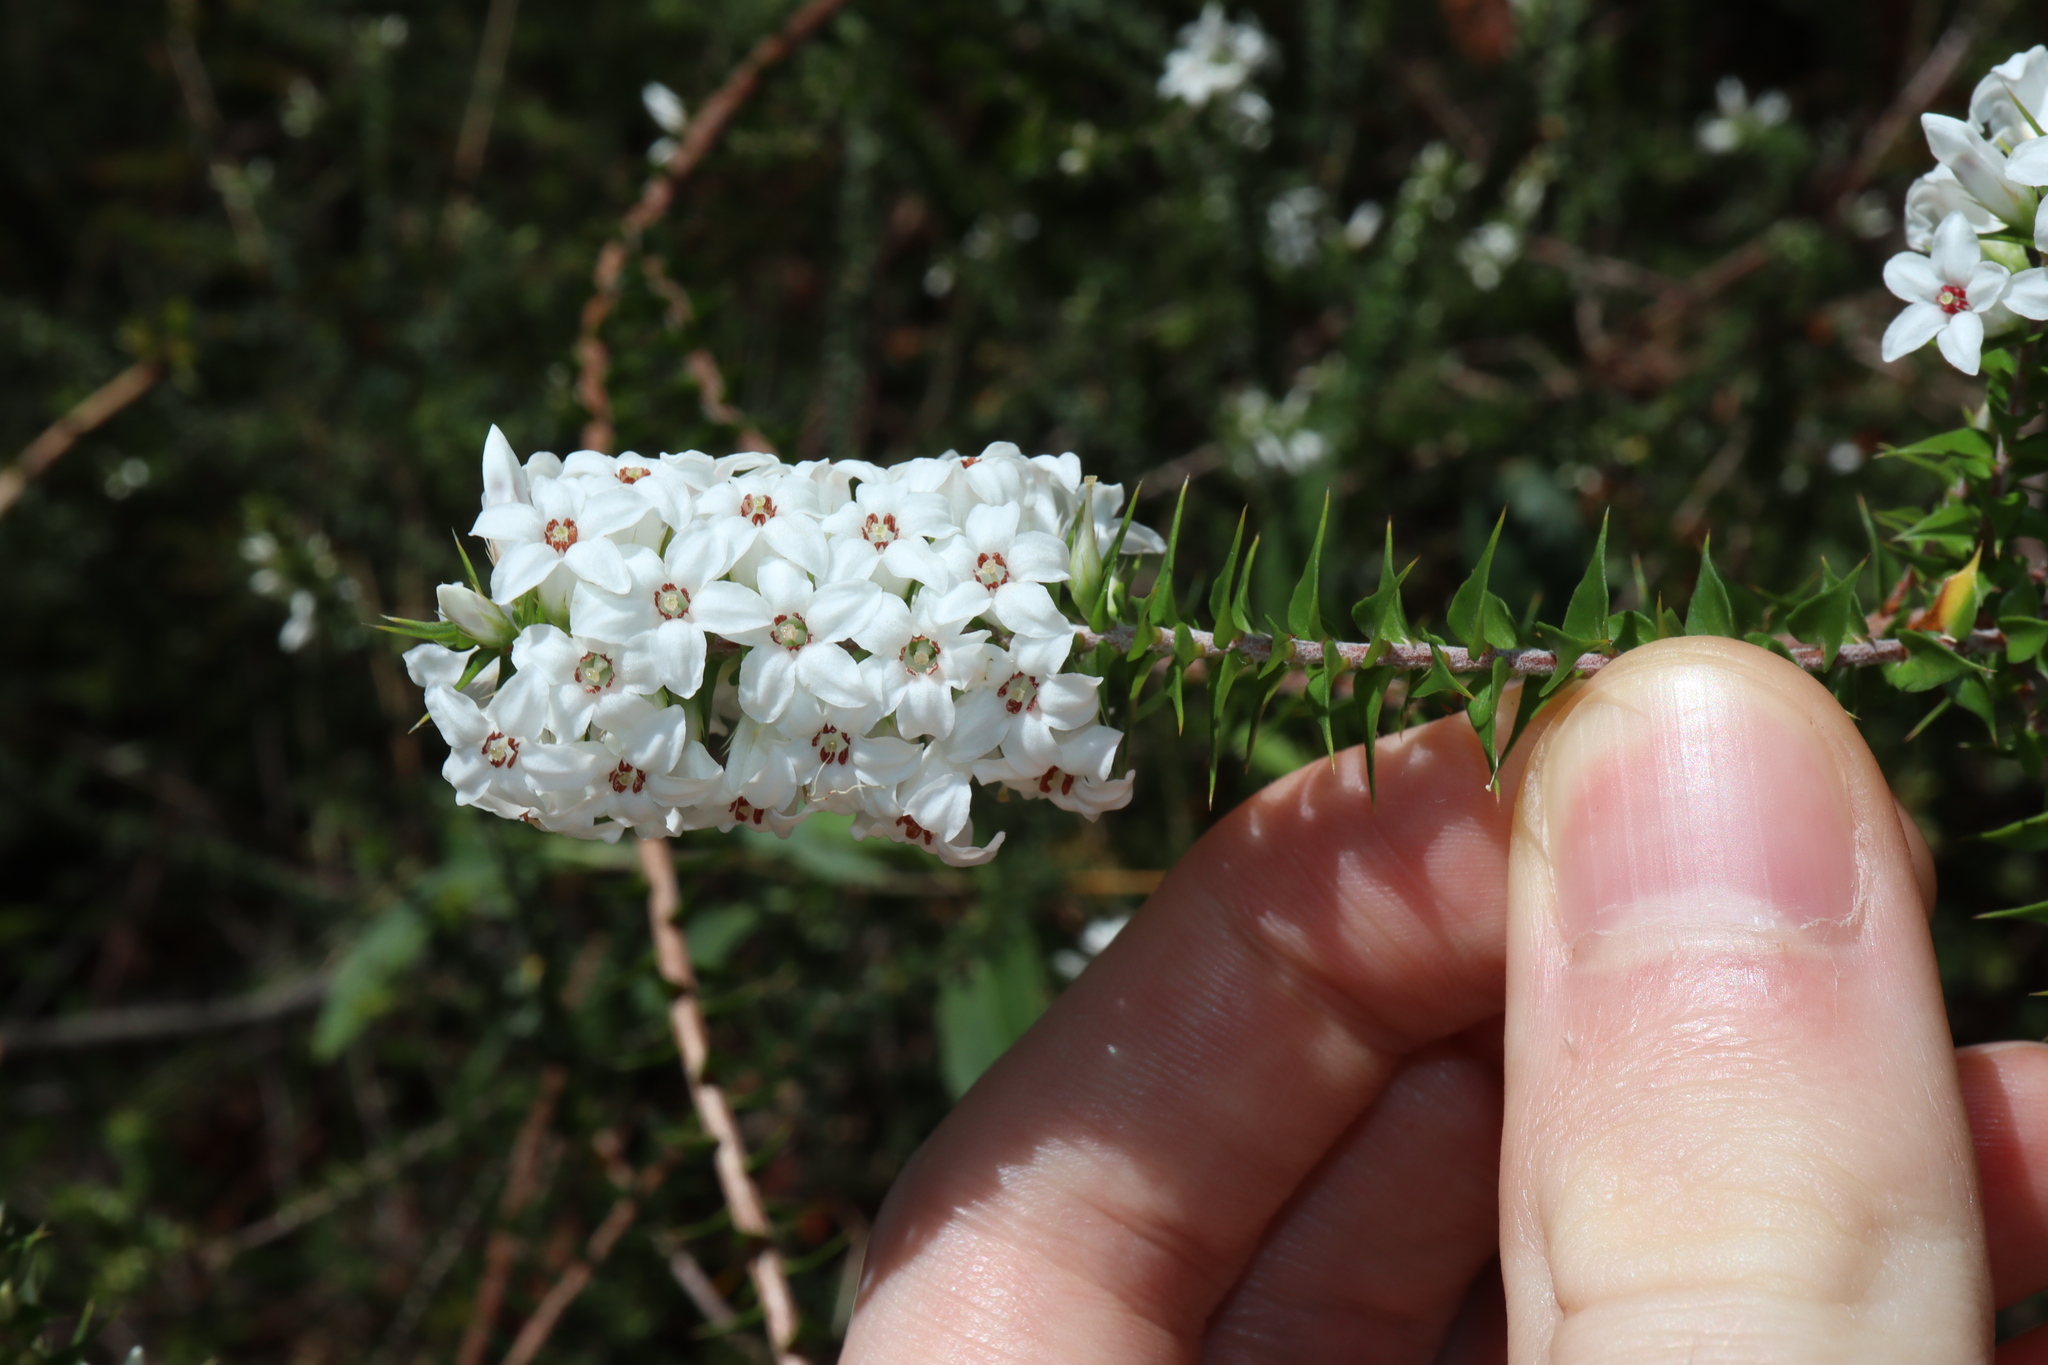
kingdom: Plantae
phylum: Tracheophyta
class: Magnoliopsida
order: Ericales
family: Ericaceae
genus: Epacris
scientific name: Epacris pulchella
